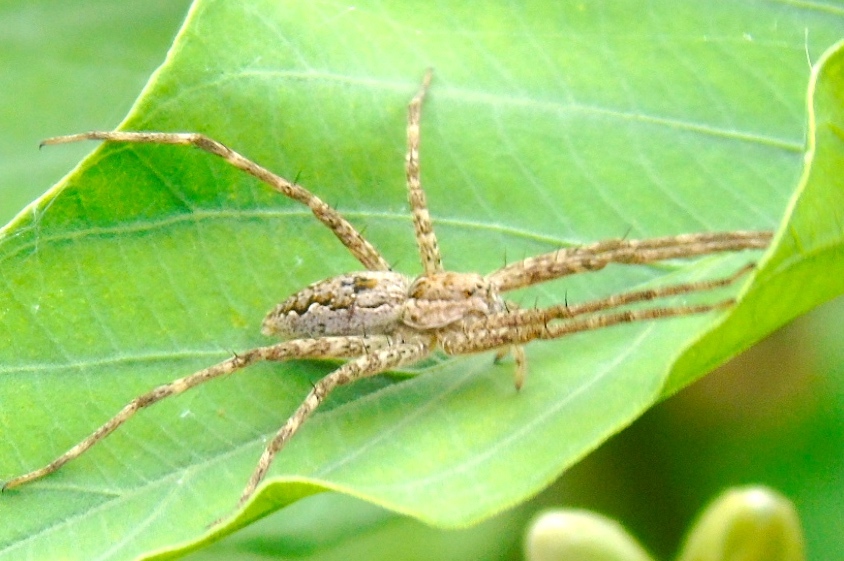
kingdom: Animalia
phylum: Arthropoda
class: Arachnida
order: Araneae
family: Pisauridae
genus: Tinus
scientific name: Tinus
